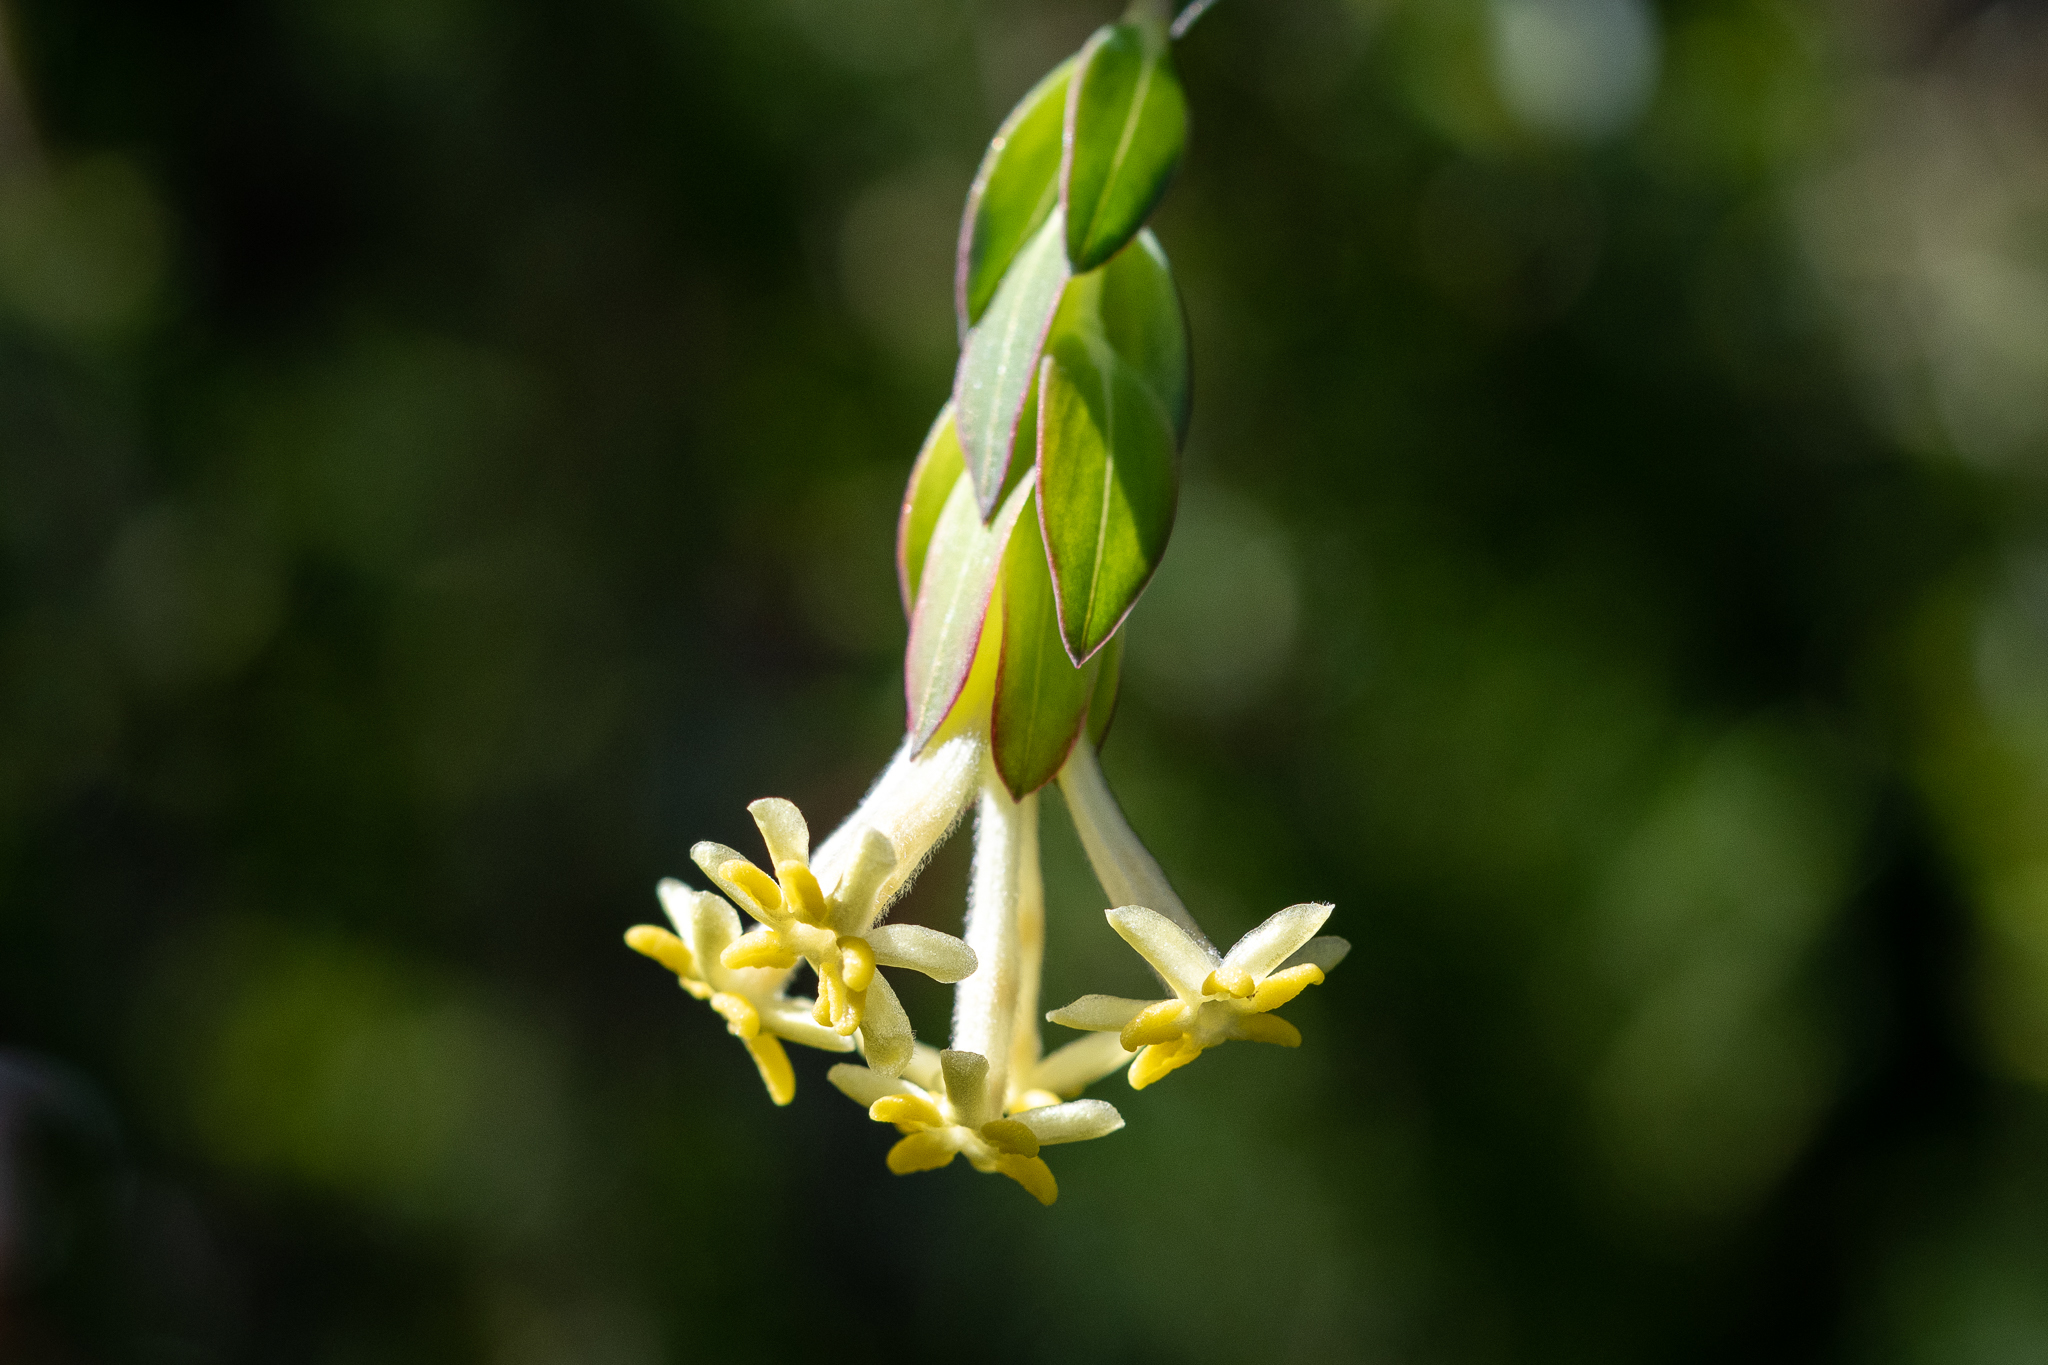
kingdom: Plantae
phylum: Tracheophyta
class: Magnoliopsida
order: Malvales
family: Thymelaeaceae
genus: Gnidia
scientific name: Gnidia oppositifolia
